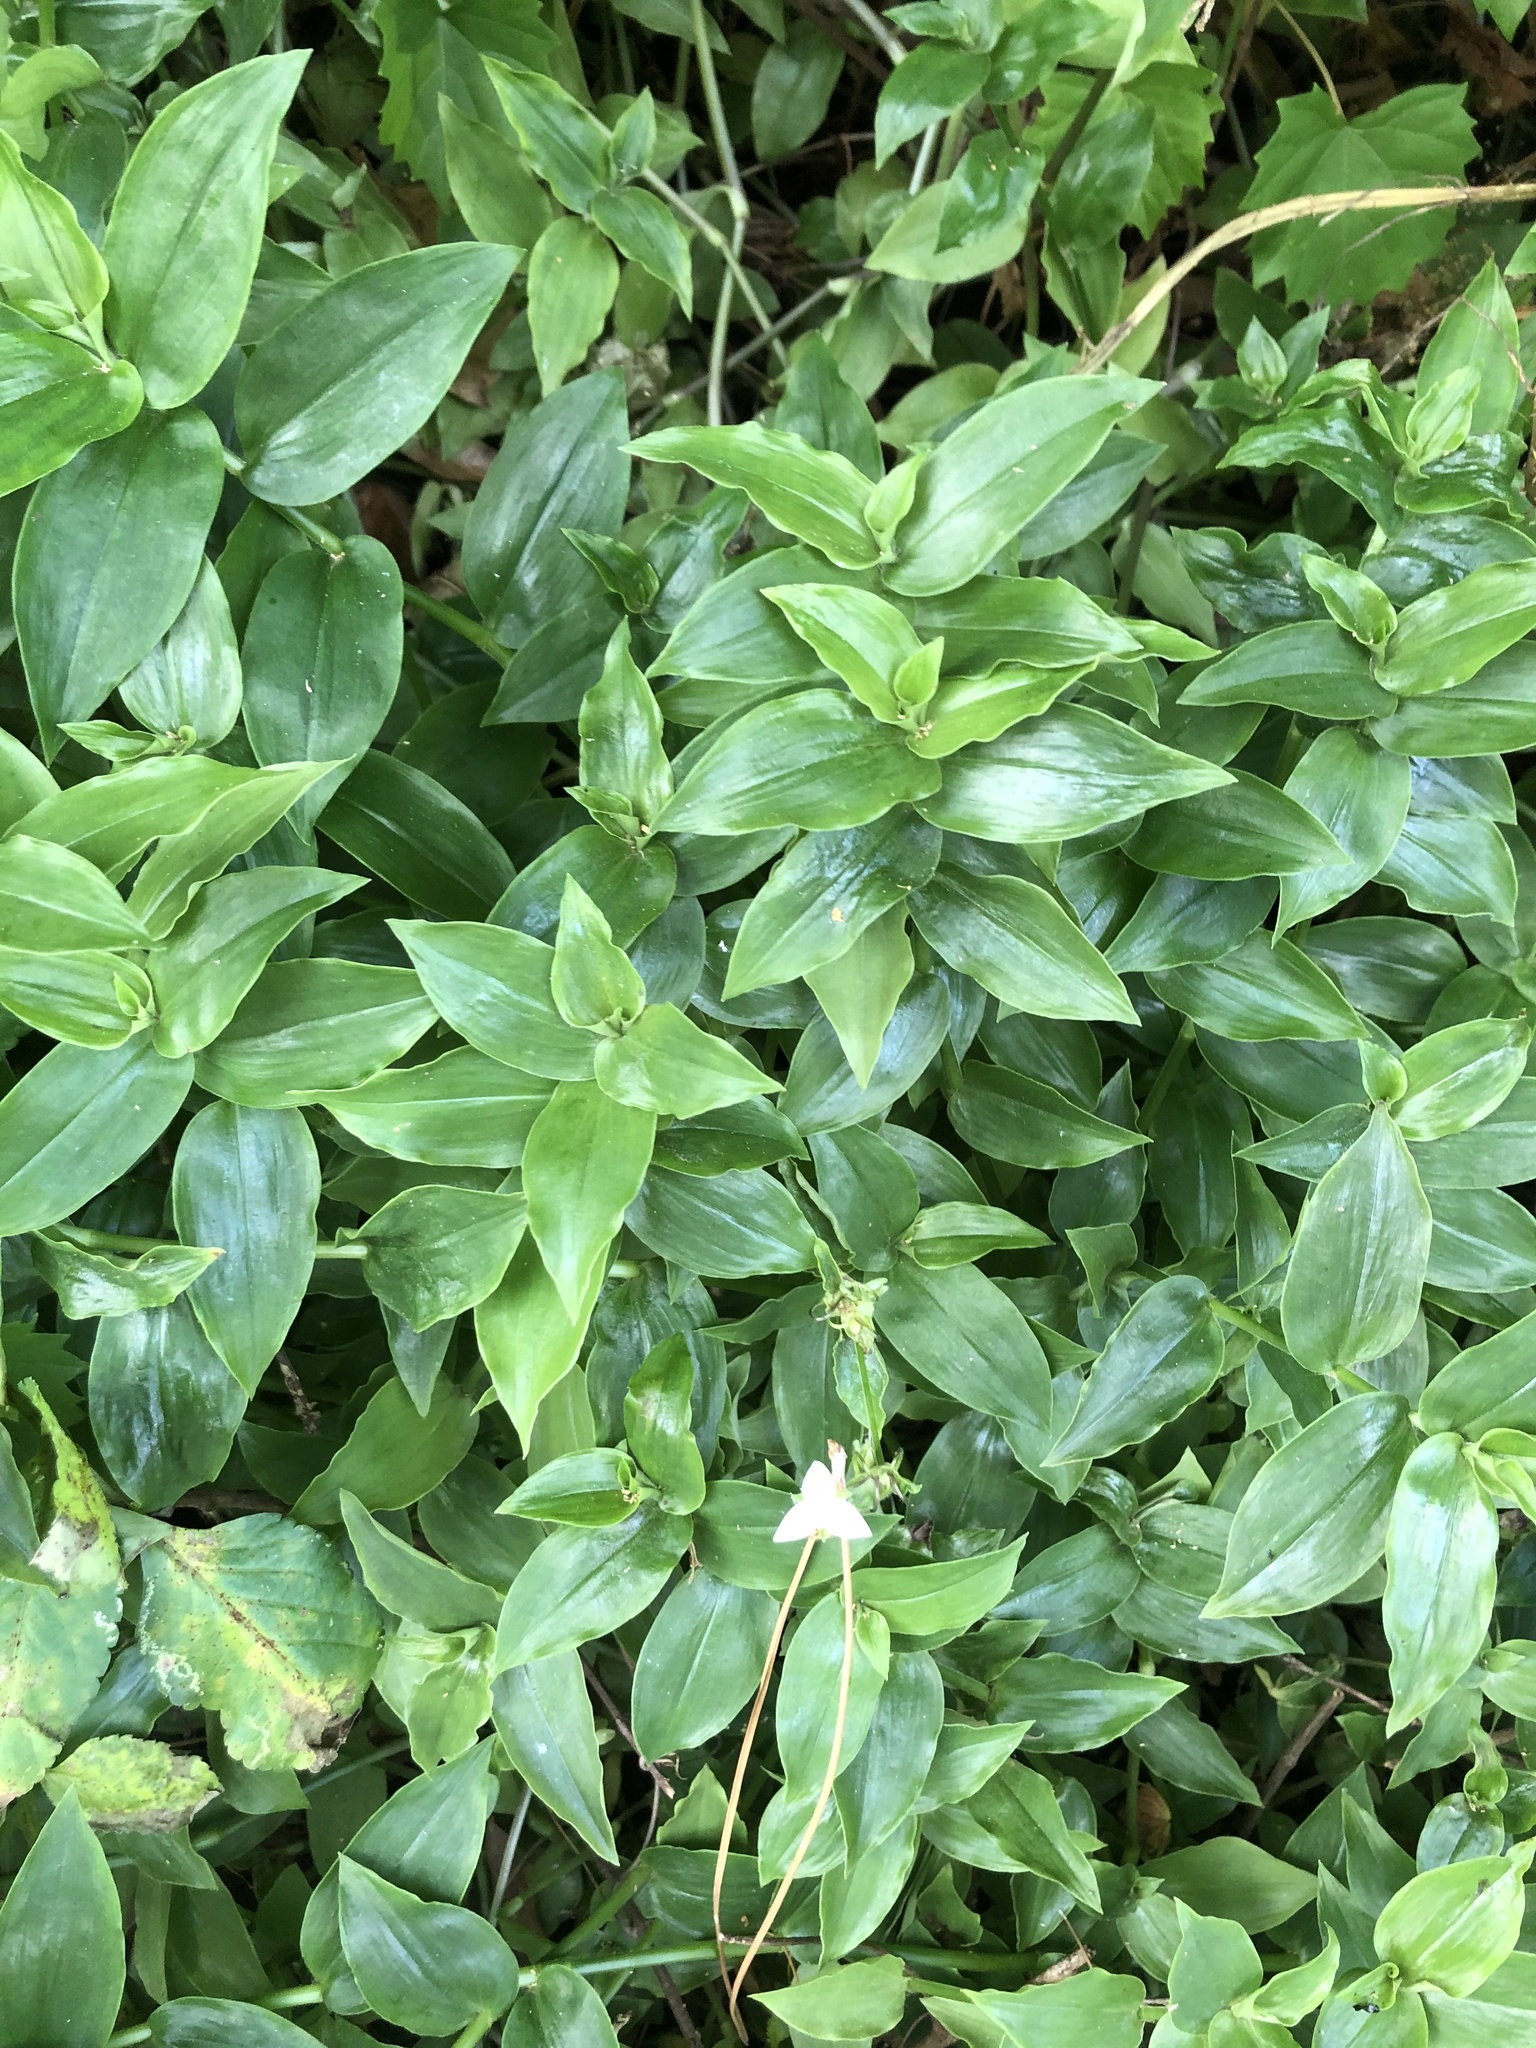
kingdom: Plantae
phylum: Tracheophyta
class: Liliopsida
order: Commelinales
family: Commelinaceae
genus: Tradescantia
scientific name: Tradescantia fluminensis
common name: Wandering-jew
